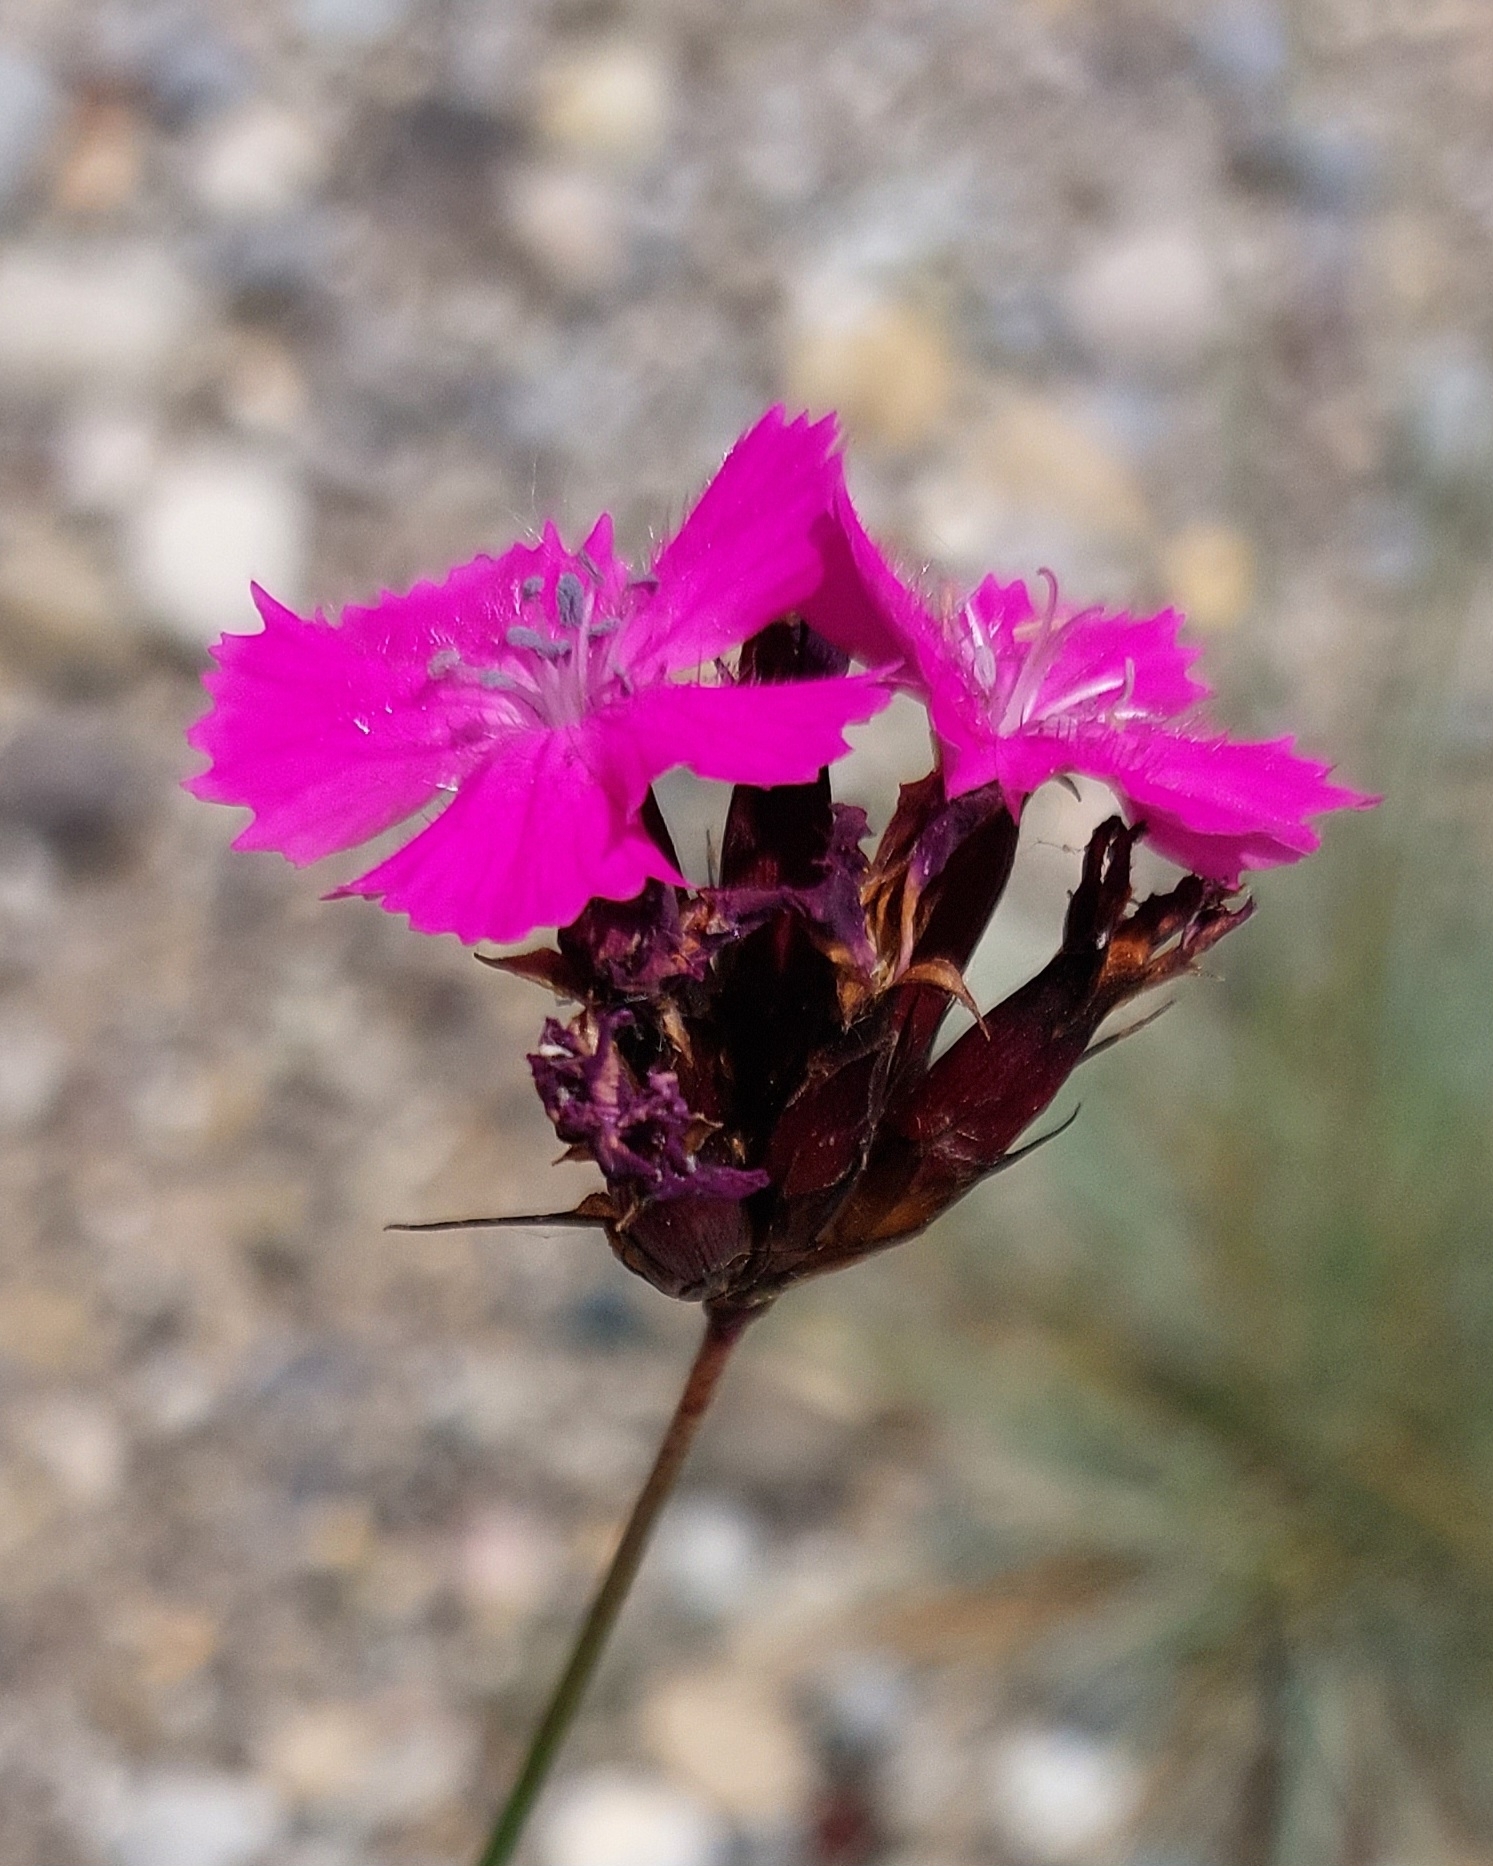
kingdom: Plantae
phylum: Tracheophyta
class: Magnoliopsida
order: Caryophyllales
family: Caryophyllaceae
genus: Dianthus
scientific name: Dianthus carthusianorum
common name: Carthusian pink
